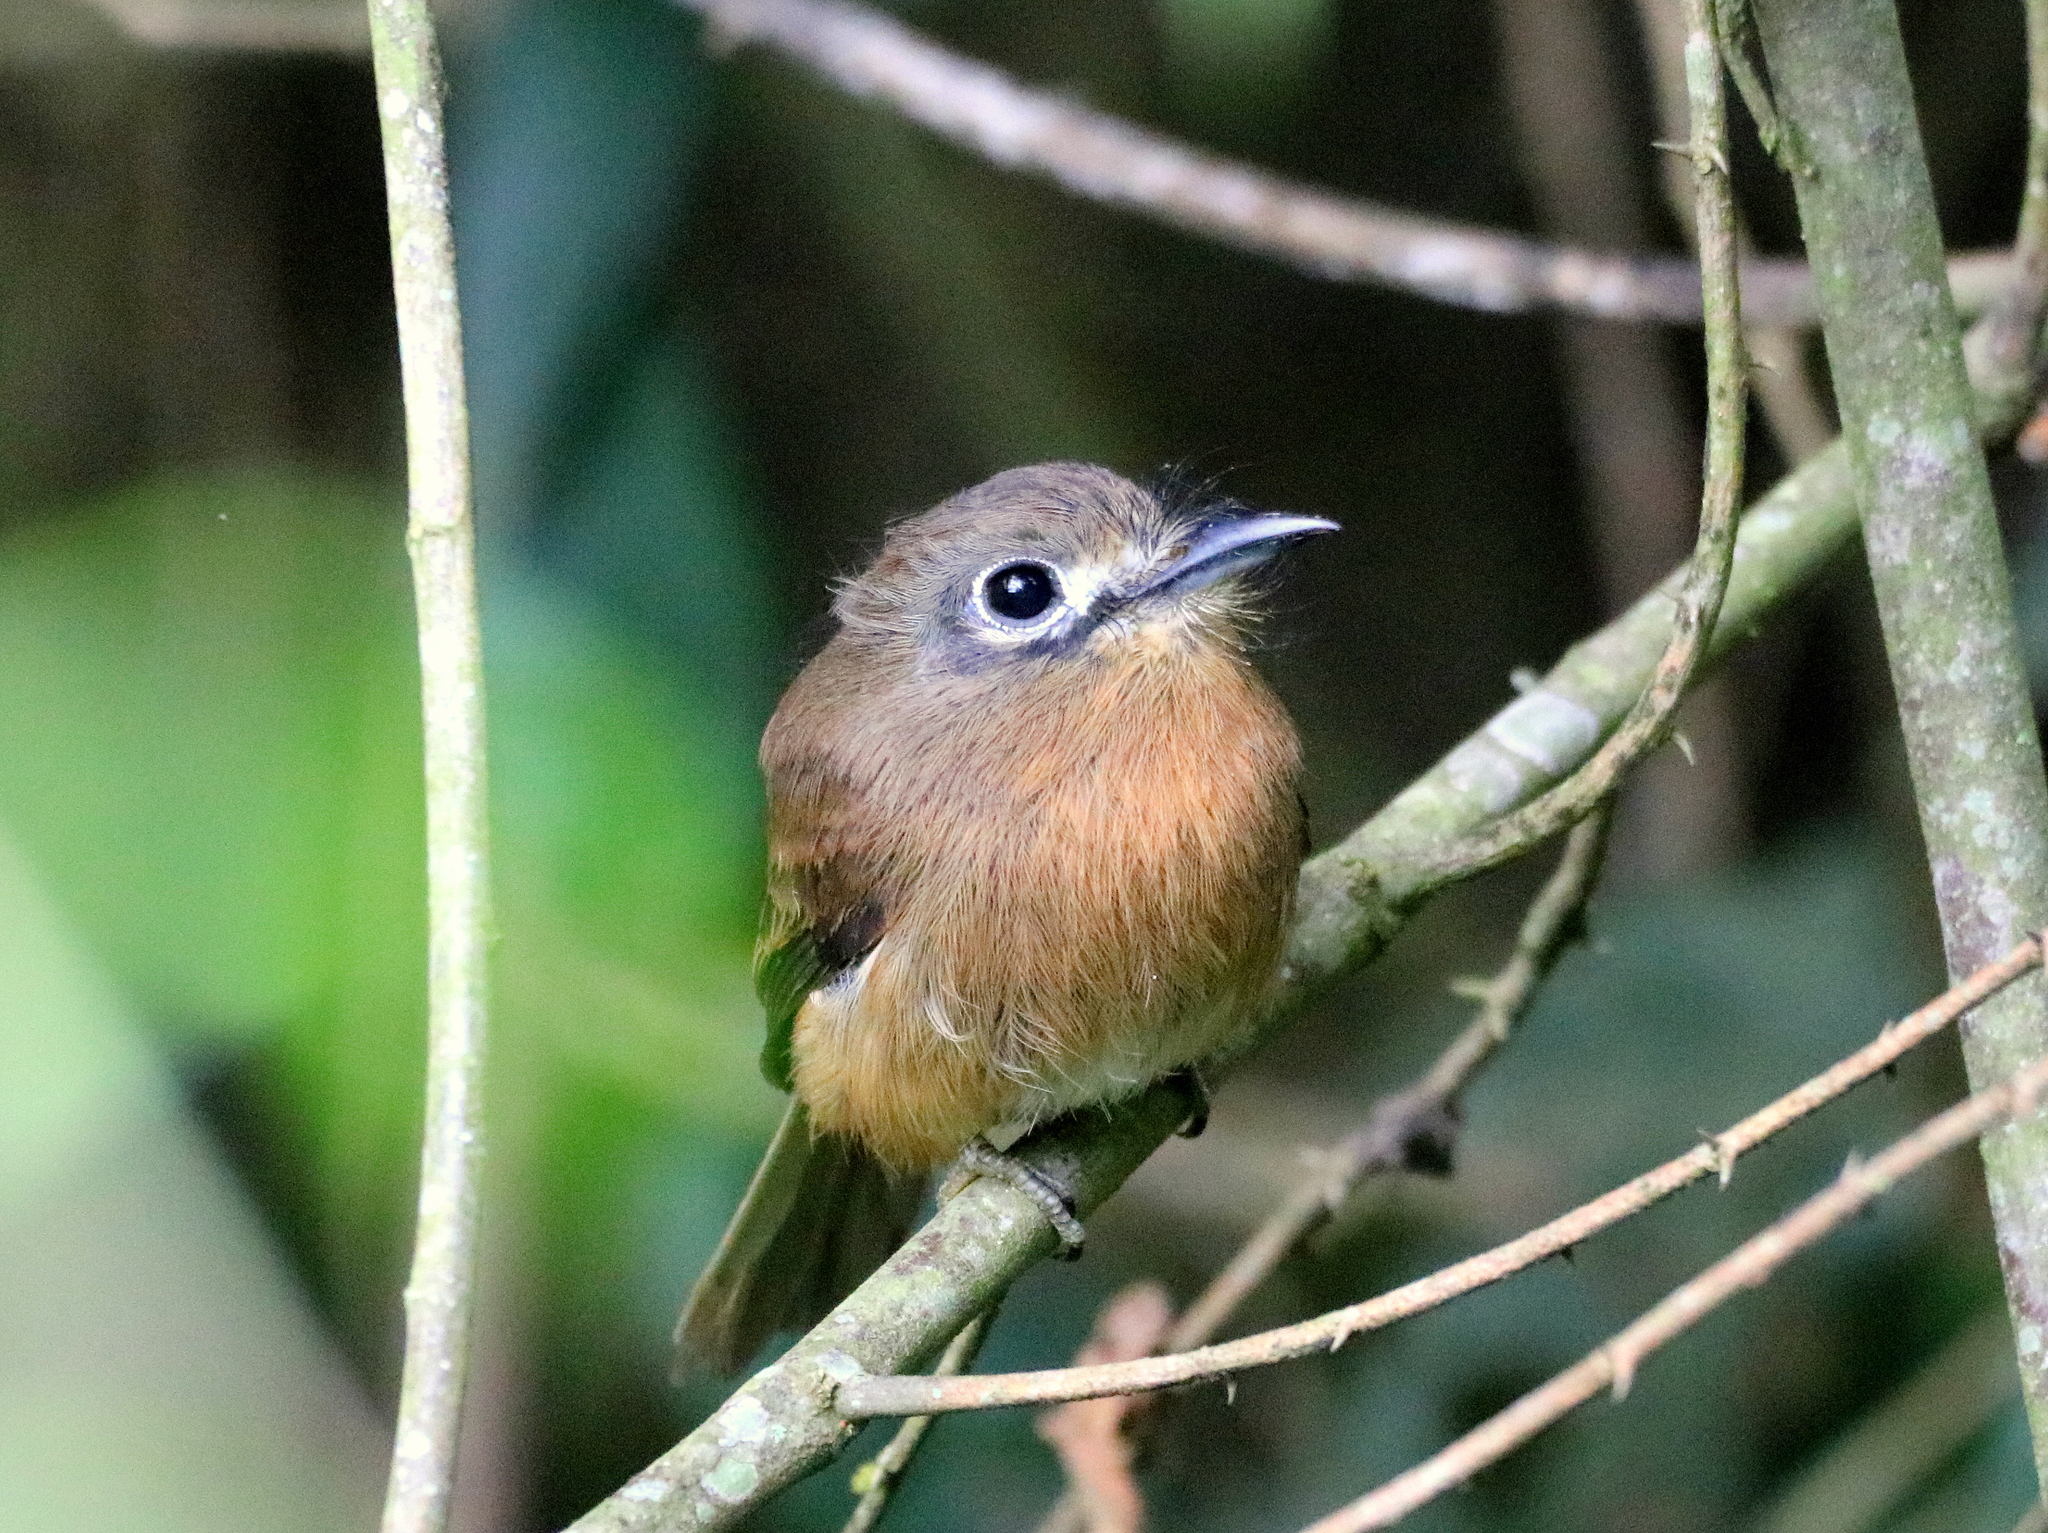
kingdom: Animalia
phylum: Chordata
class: Aves
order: Piciformes
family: Bucconidae
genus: Nonnula
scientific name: Nonnula rubecula
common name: Rusty-breasted nunlet
